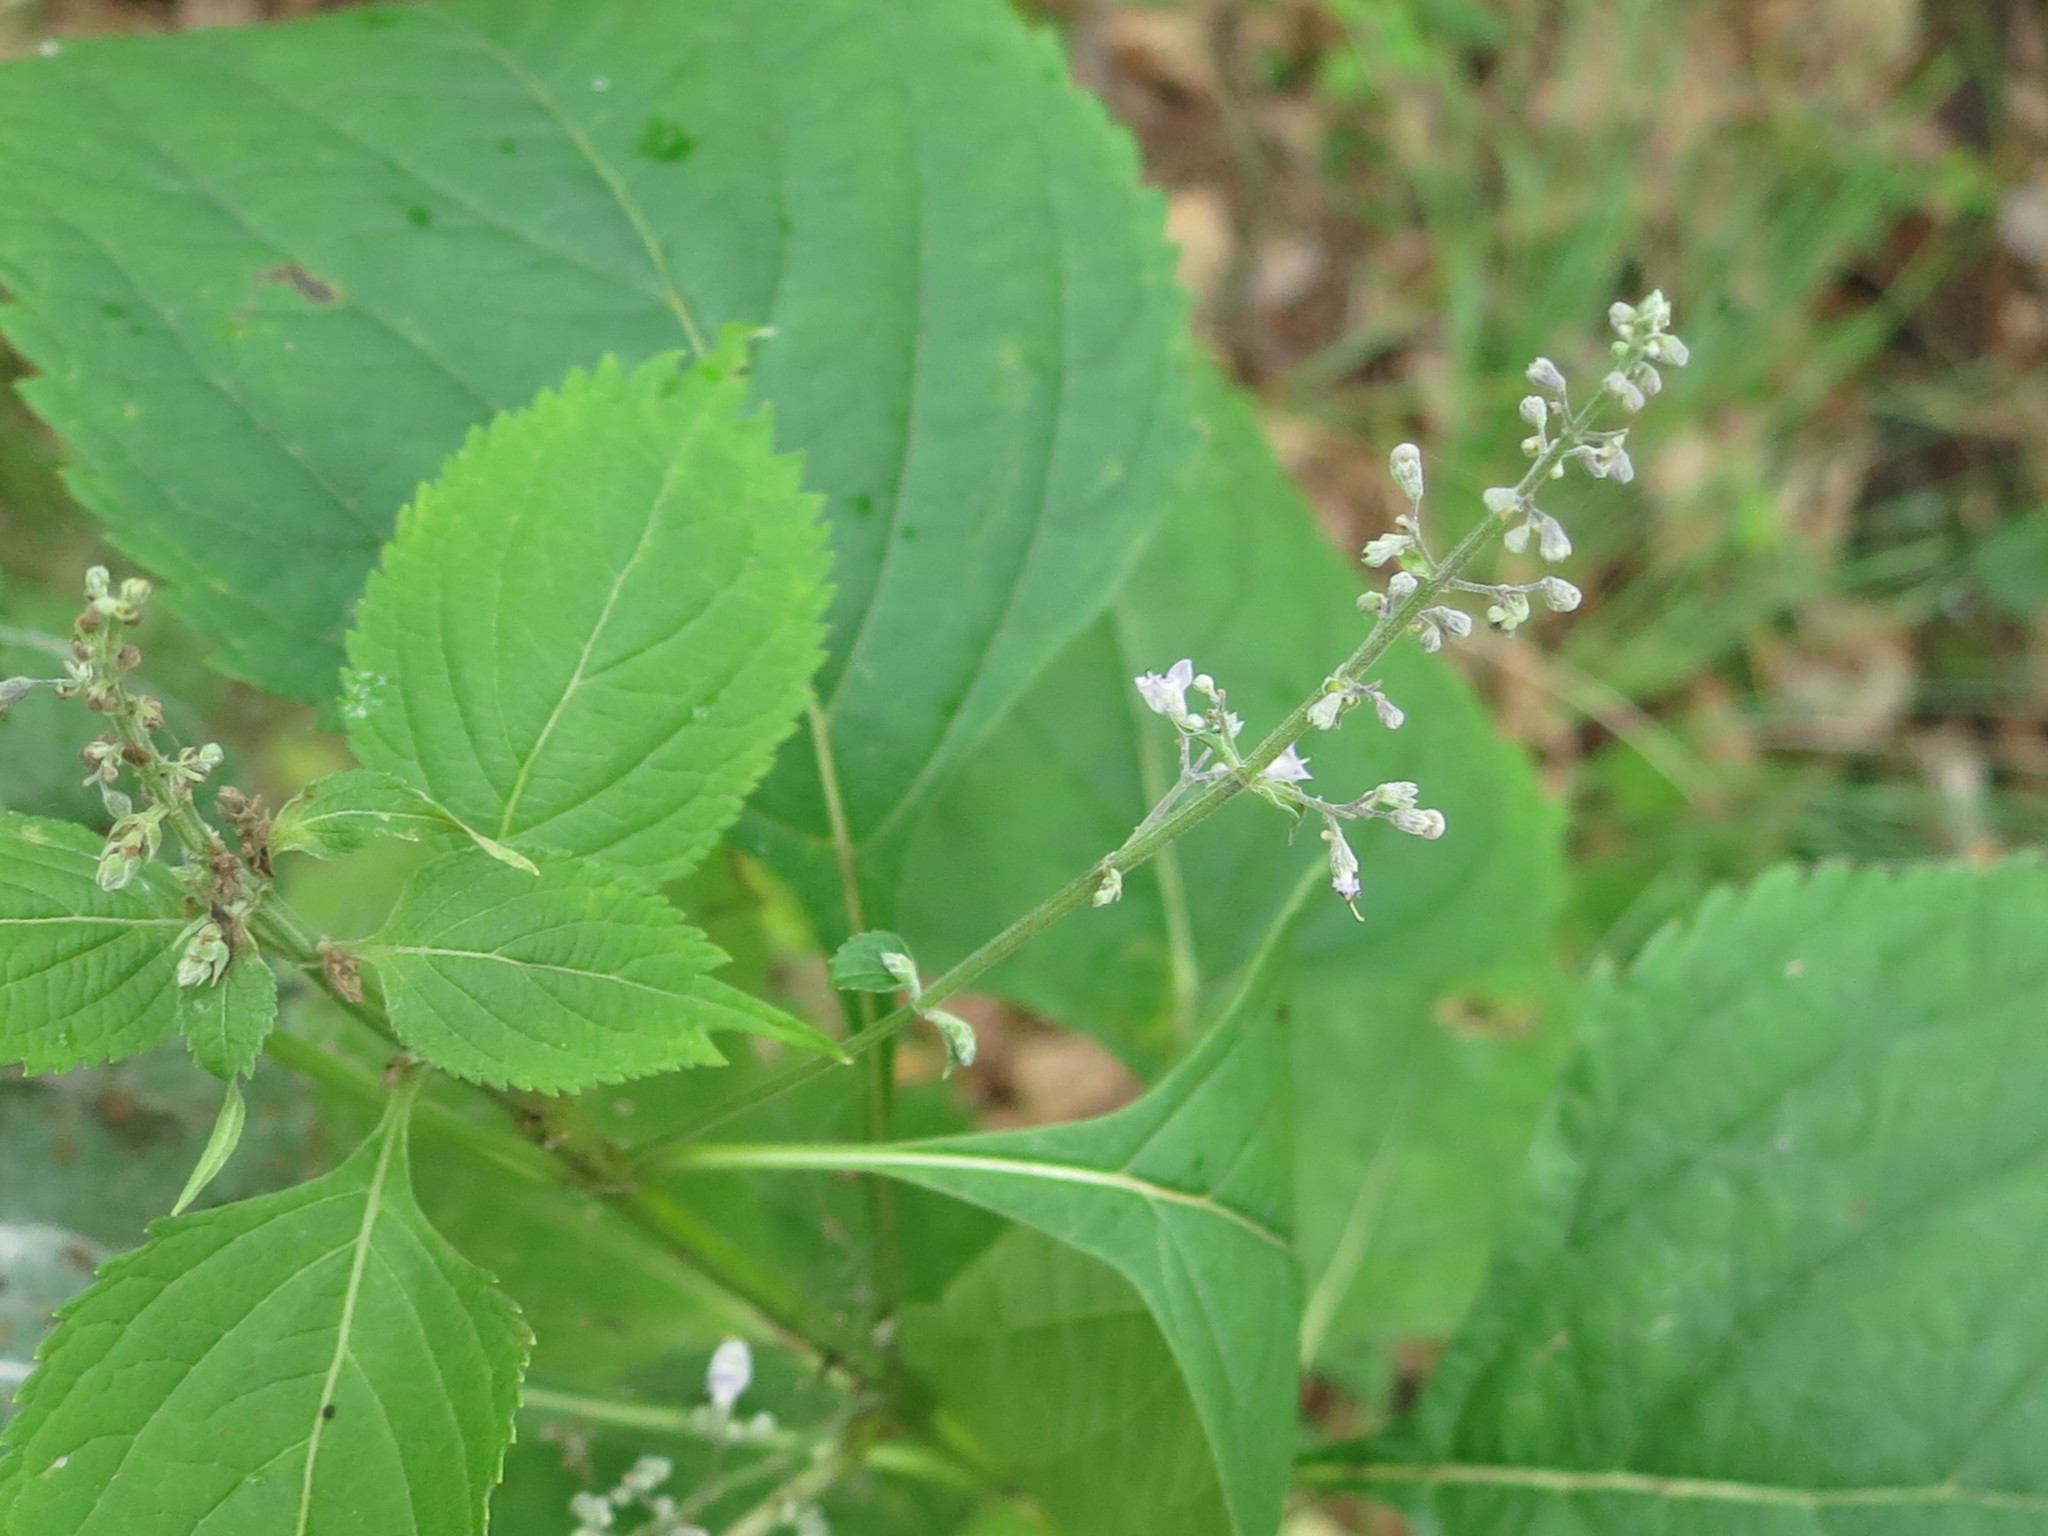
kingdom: Plantae
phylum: Tracheophyta
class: Magnoliopsida
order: Lamiales
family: Lamiaceae
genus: Isodon
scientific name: Isodon japonicus
